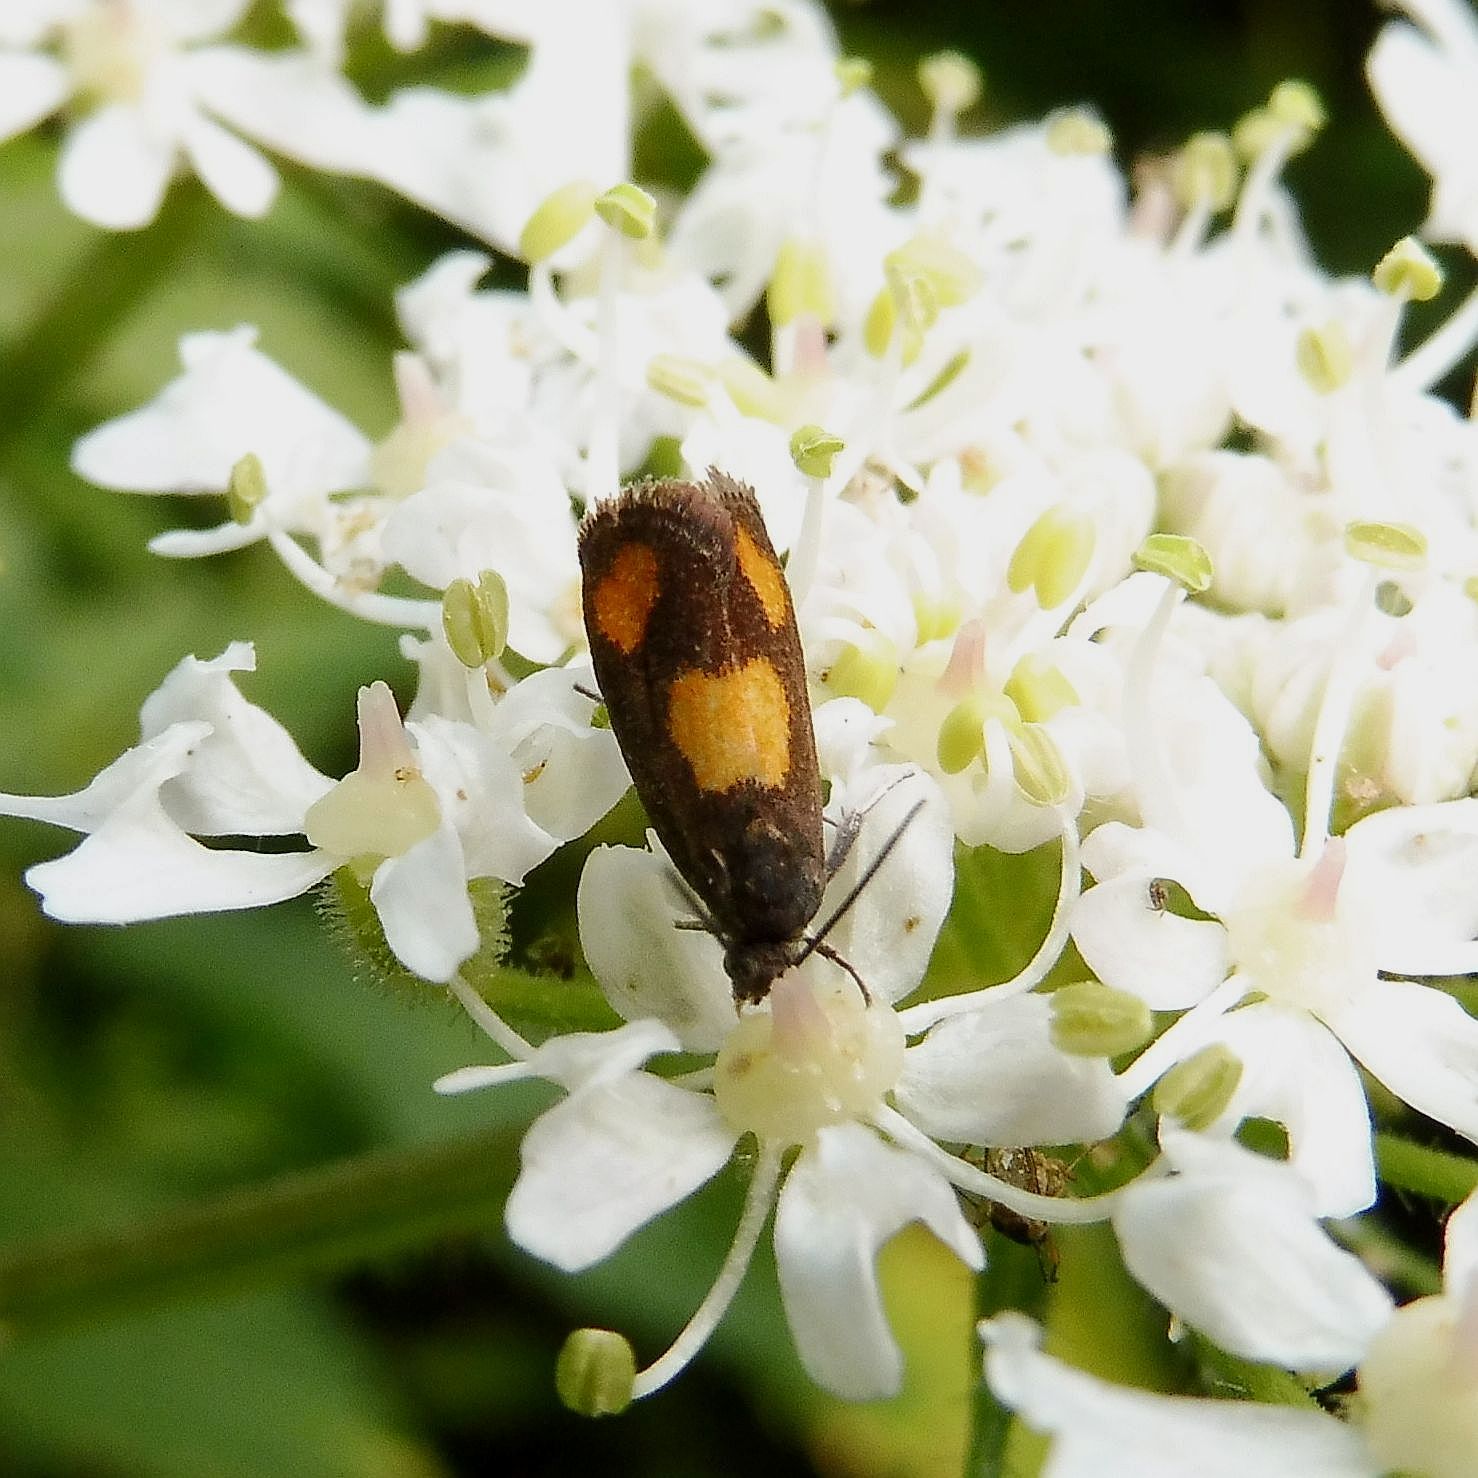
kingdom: Animalia
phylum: Arthropoda
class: Insecta
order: Lepidoptera
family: Tortricidae
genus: Pammene
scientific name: Pammene aurana
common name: Orange-spot piercer
